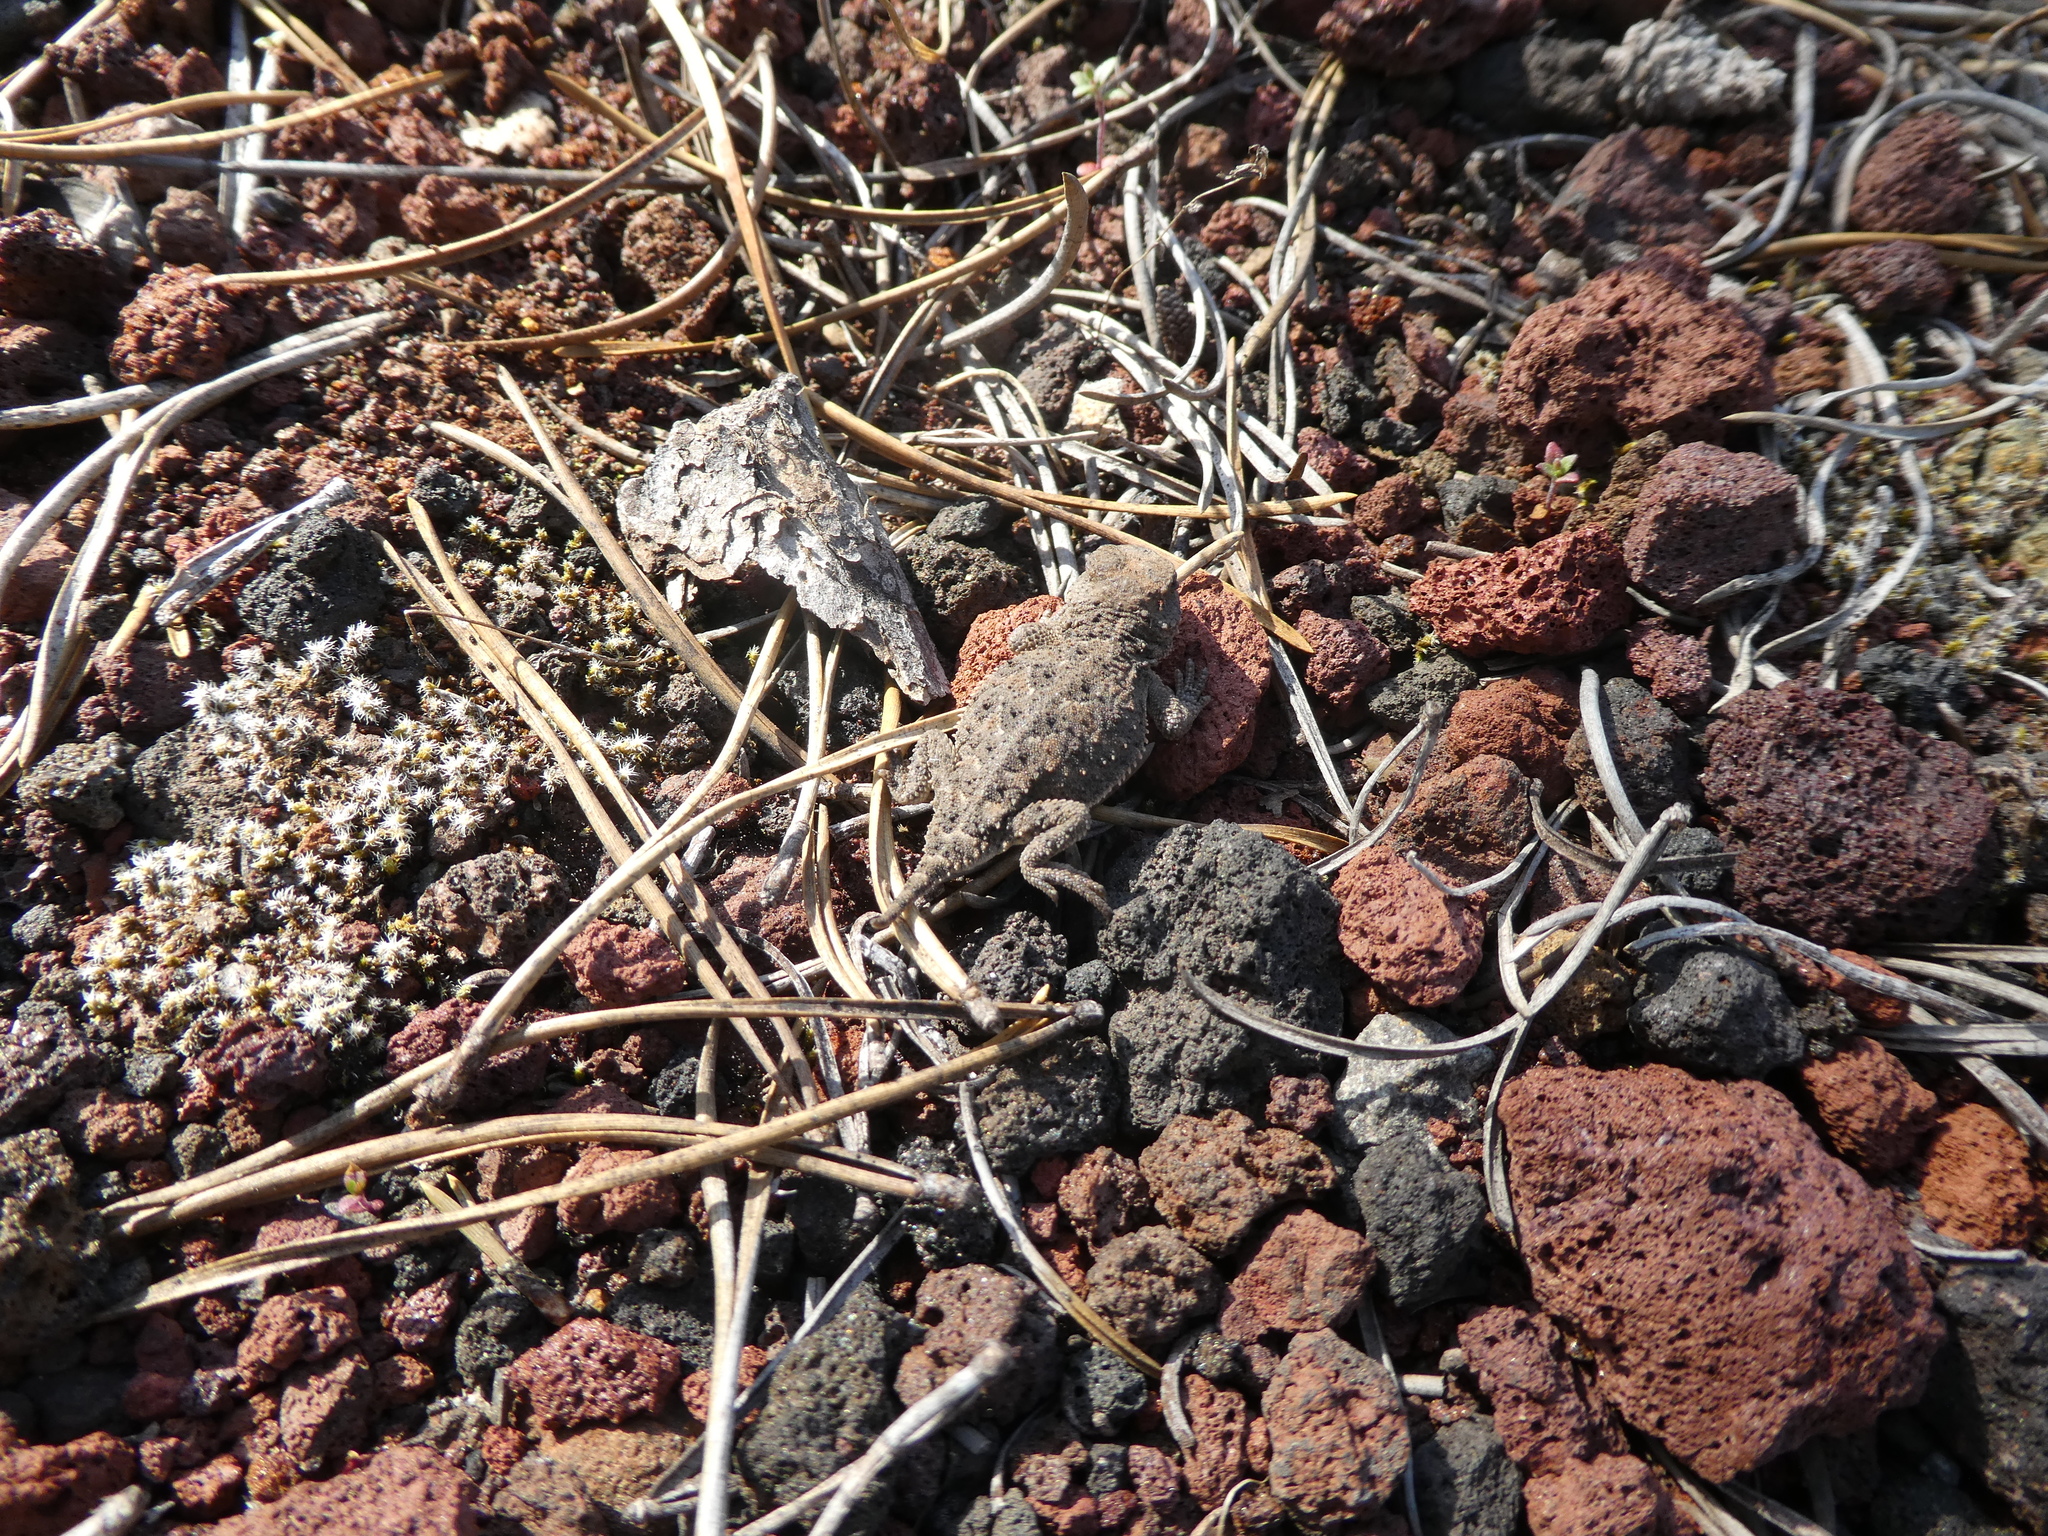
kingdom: Animalia
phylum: Chordata
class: Squamata
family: Phrynosomatidae
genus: Phrynosoma
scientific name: Phrynosoma douglasii
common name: Short-horned lizard
